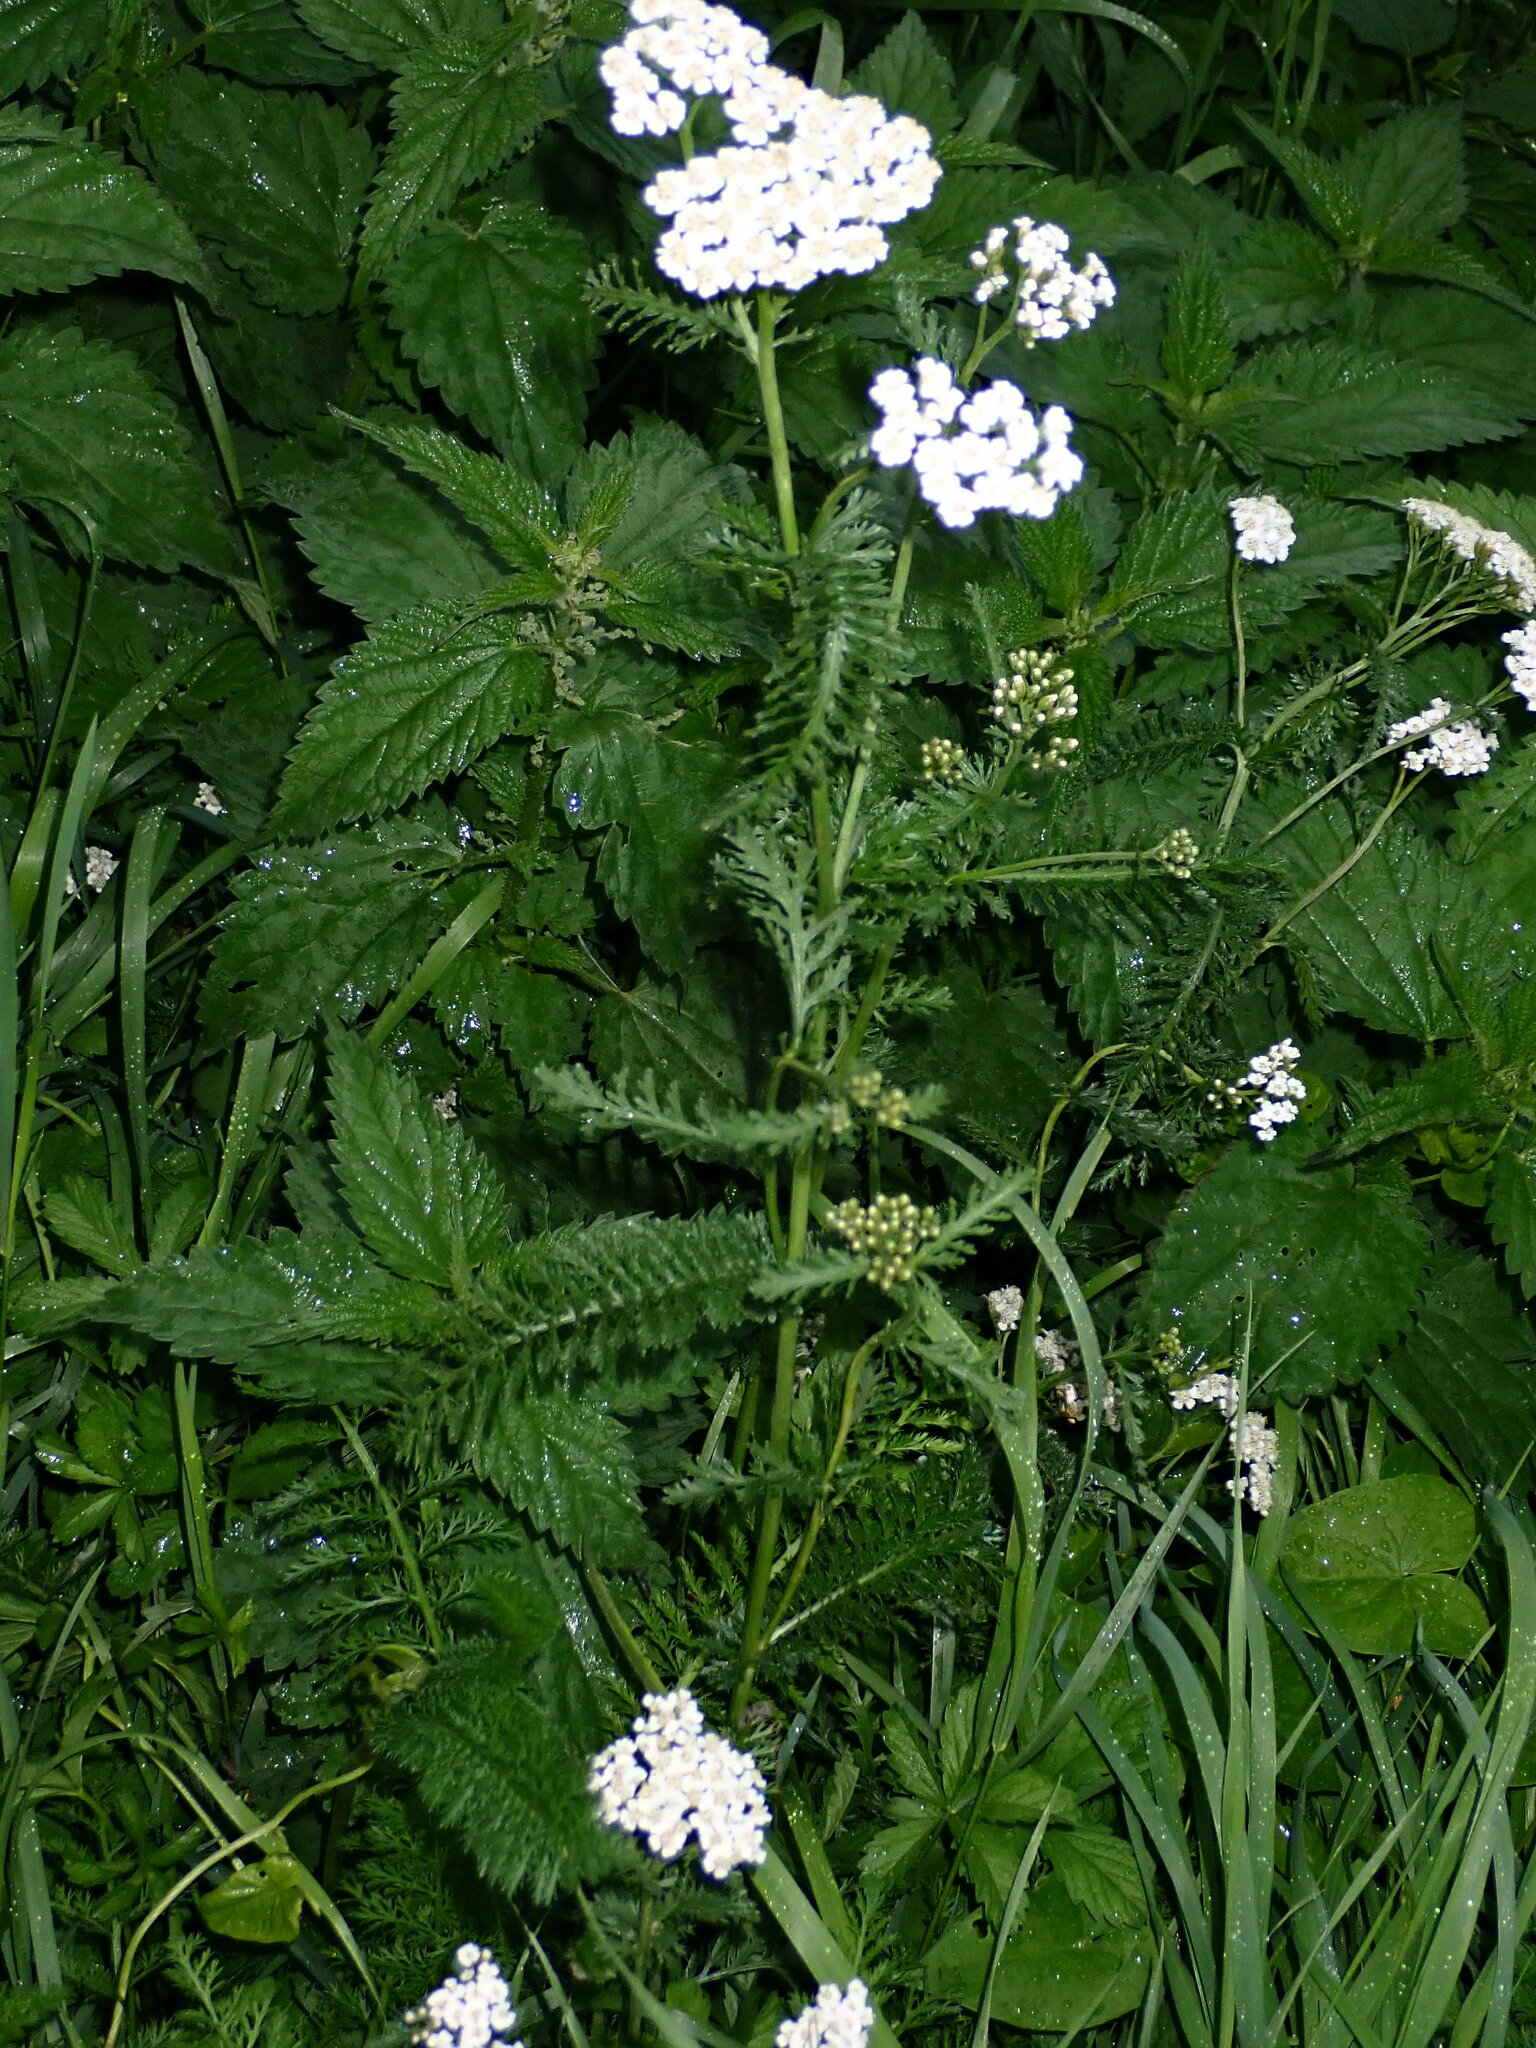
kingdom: Plantae
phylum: Tracheophyta
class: Magnoliopsida
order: Asterales
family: Asteraceae
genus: Achillea
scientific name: Achillea millefolium
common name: Yarrow
